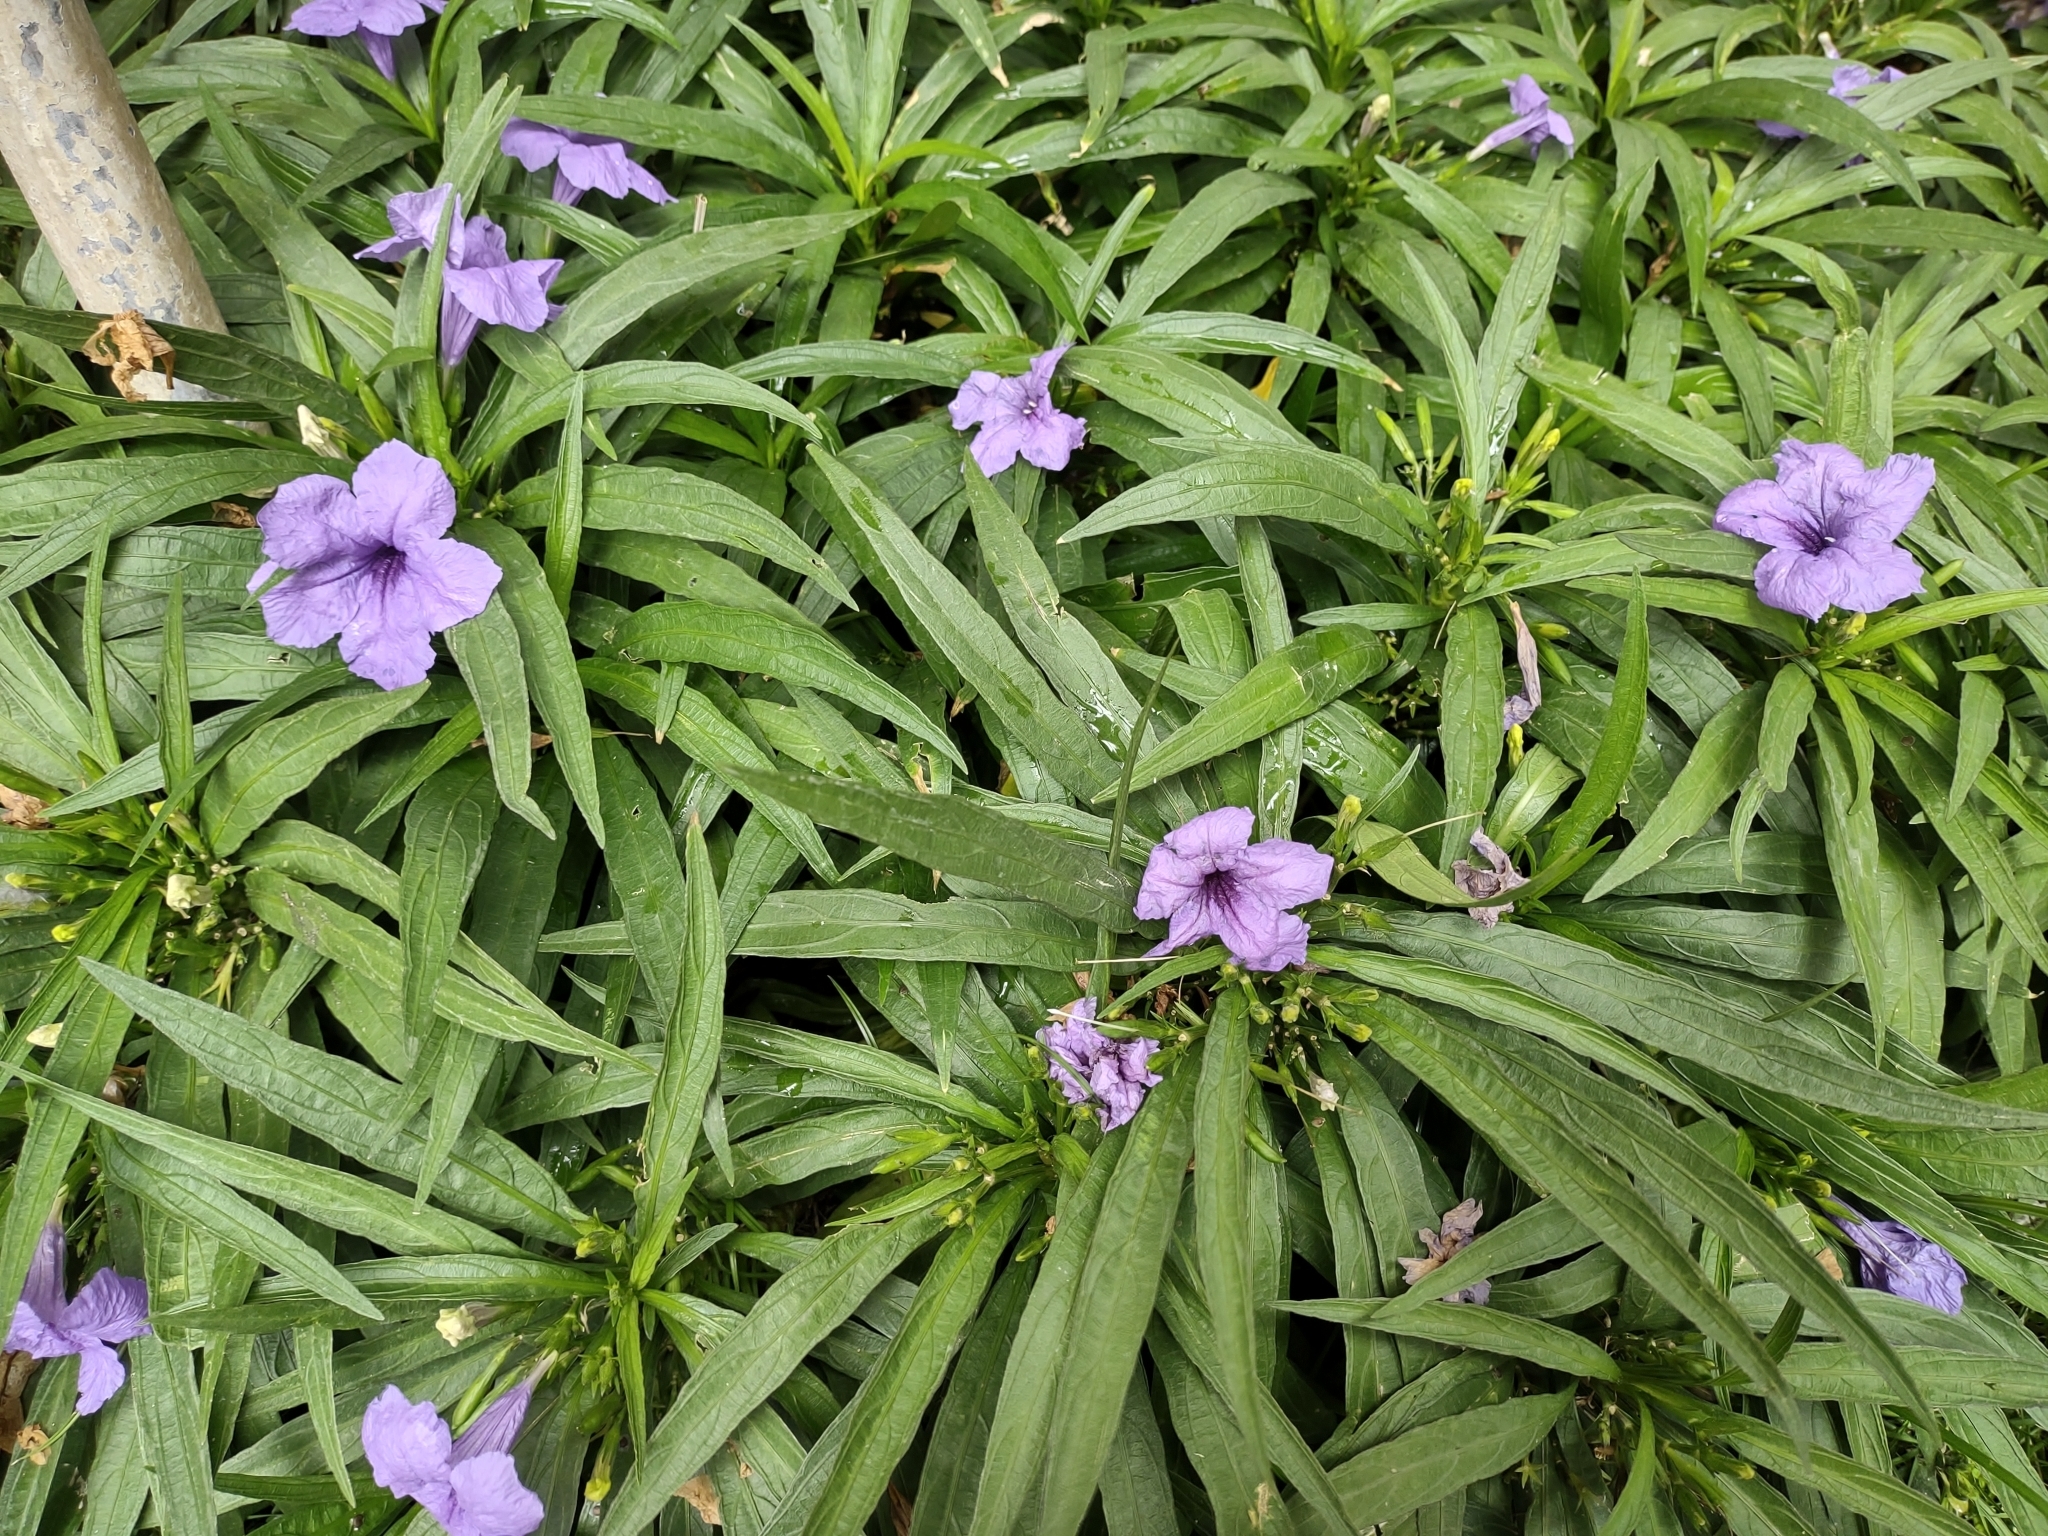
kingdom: Plantae
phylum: Tracheophyta
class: Magnoliopsida
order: Lamiales
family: Acanthaceae
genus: Ruellia
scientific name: Ruellia simplex
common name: Softseed wild petunia
